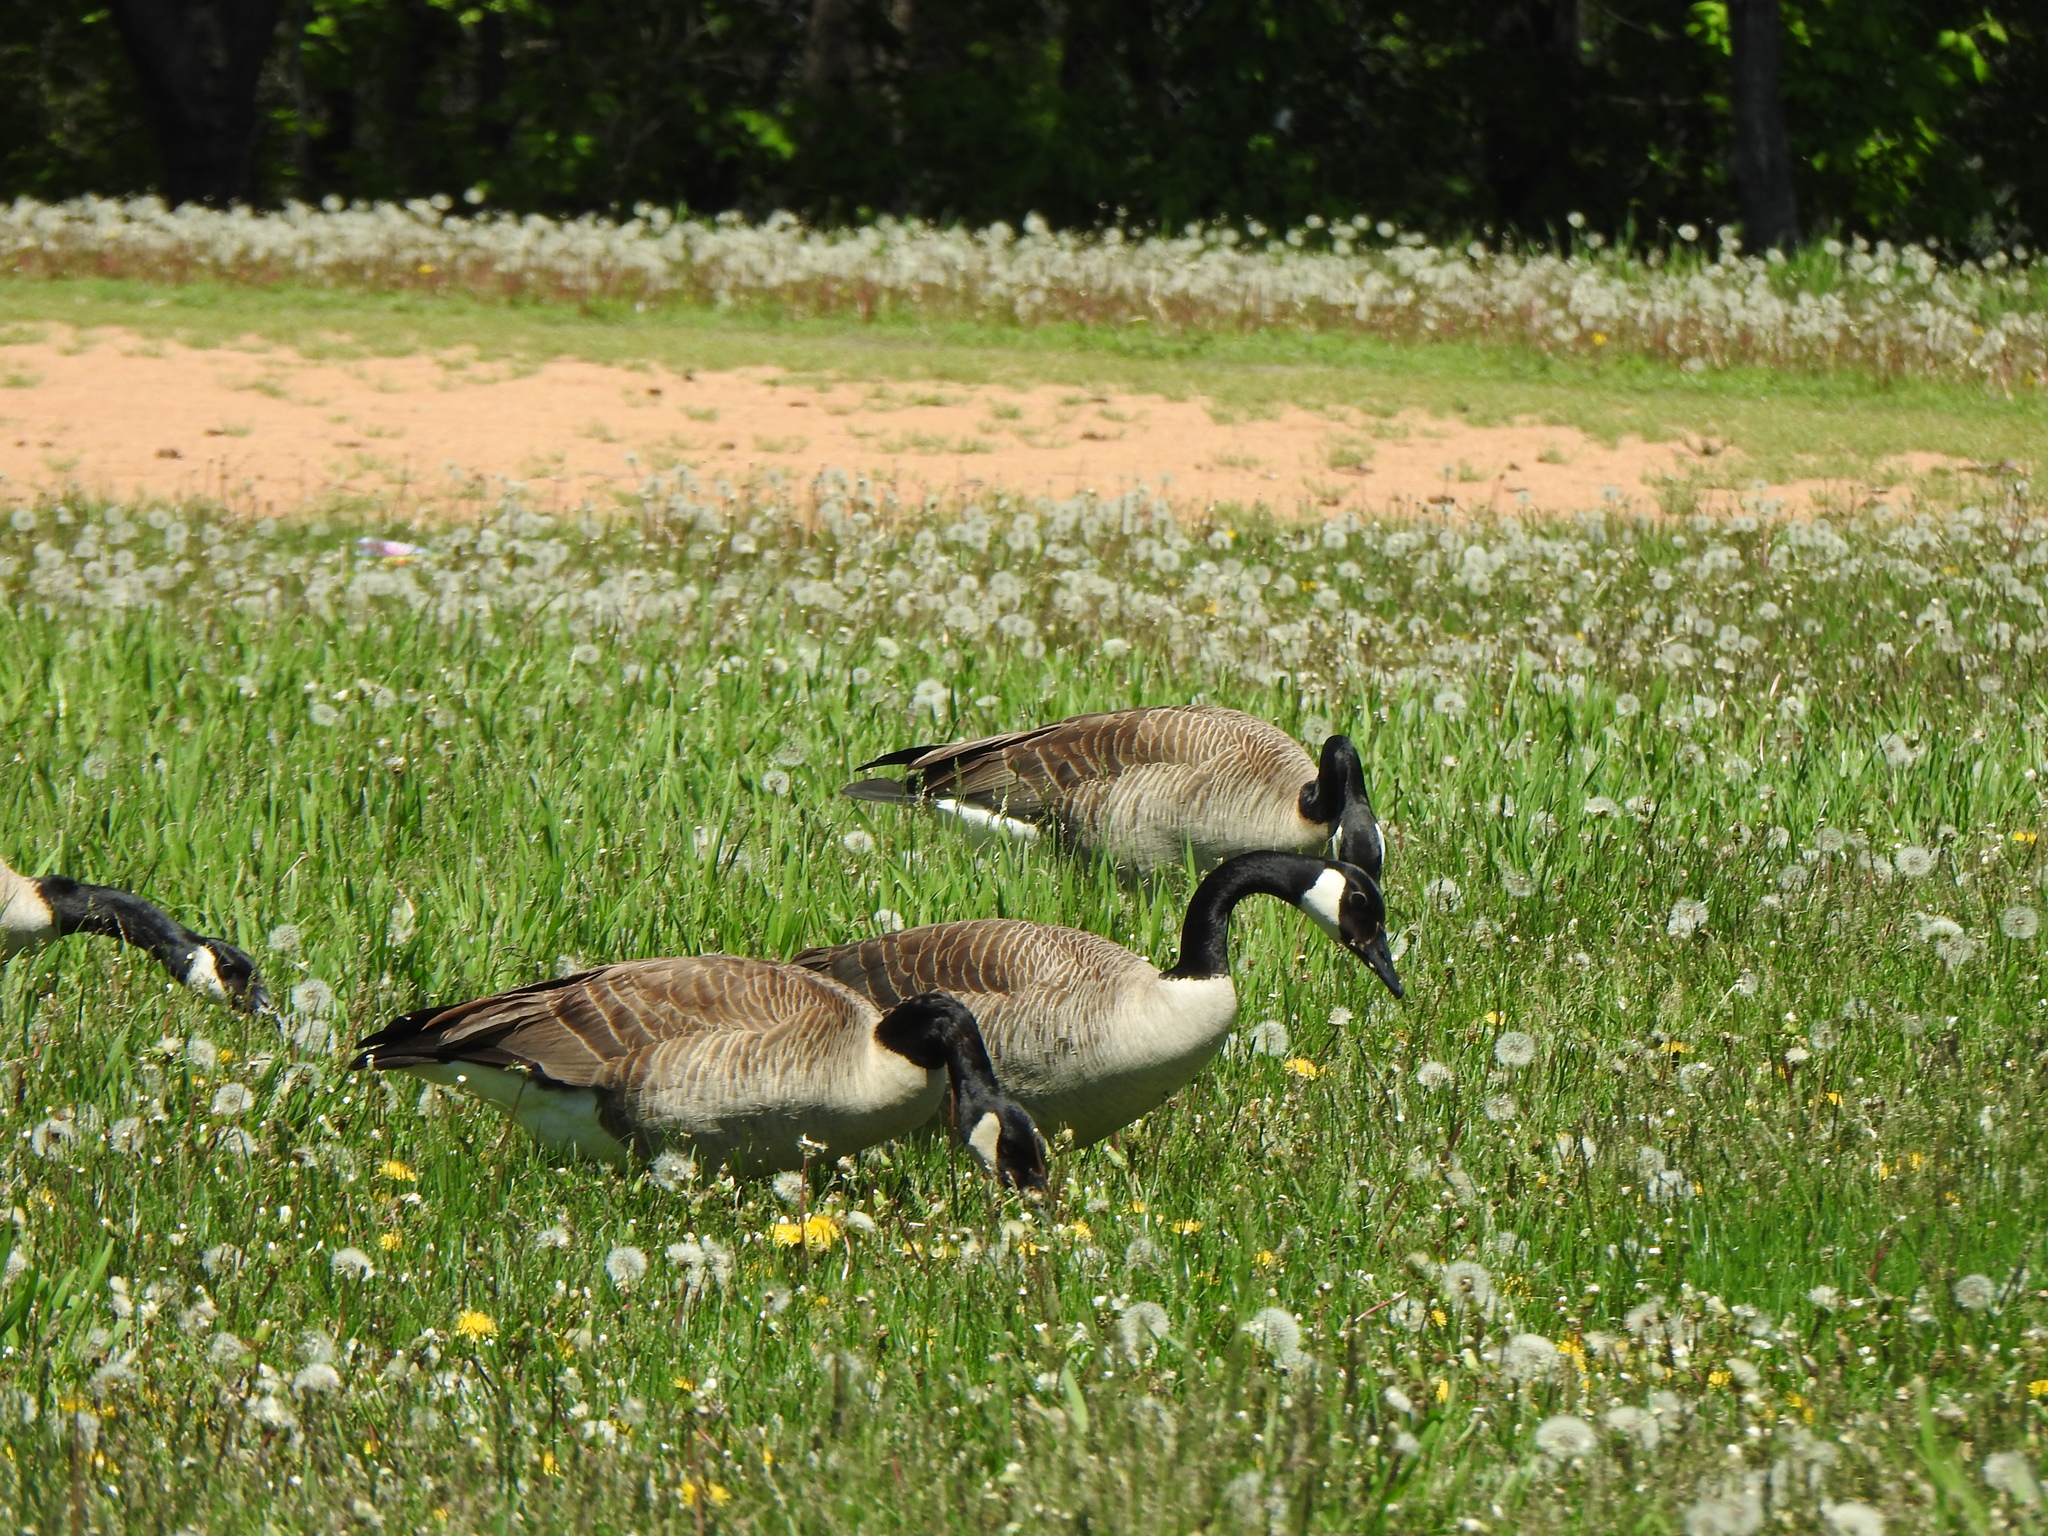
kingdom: Animalia
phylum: Chordata
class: Aves
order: Anseriformes
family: Anatidae
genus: Branta
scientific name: Branta canadensis
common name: Canada goose
